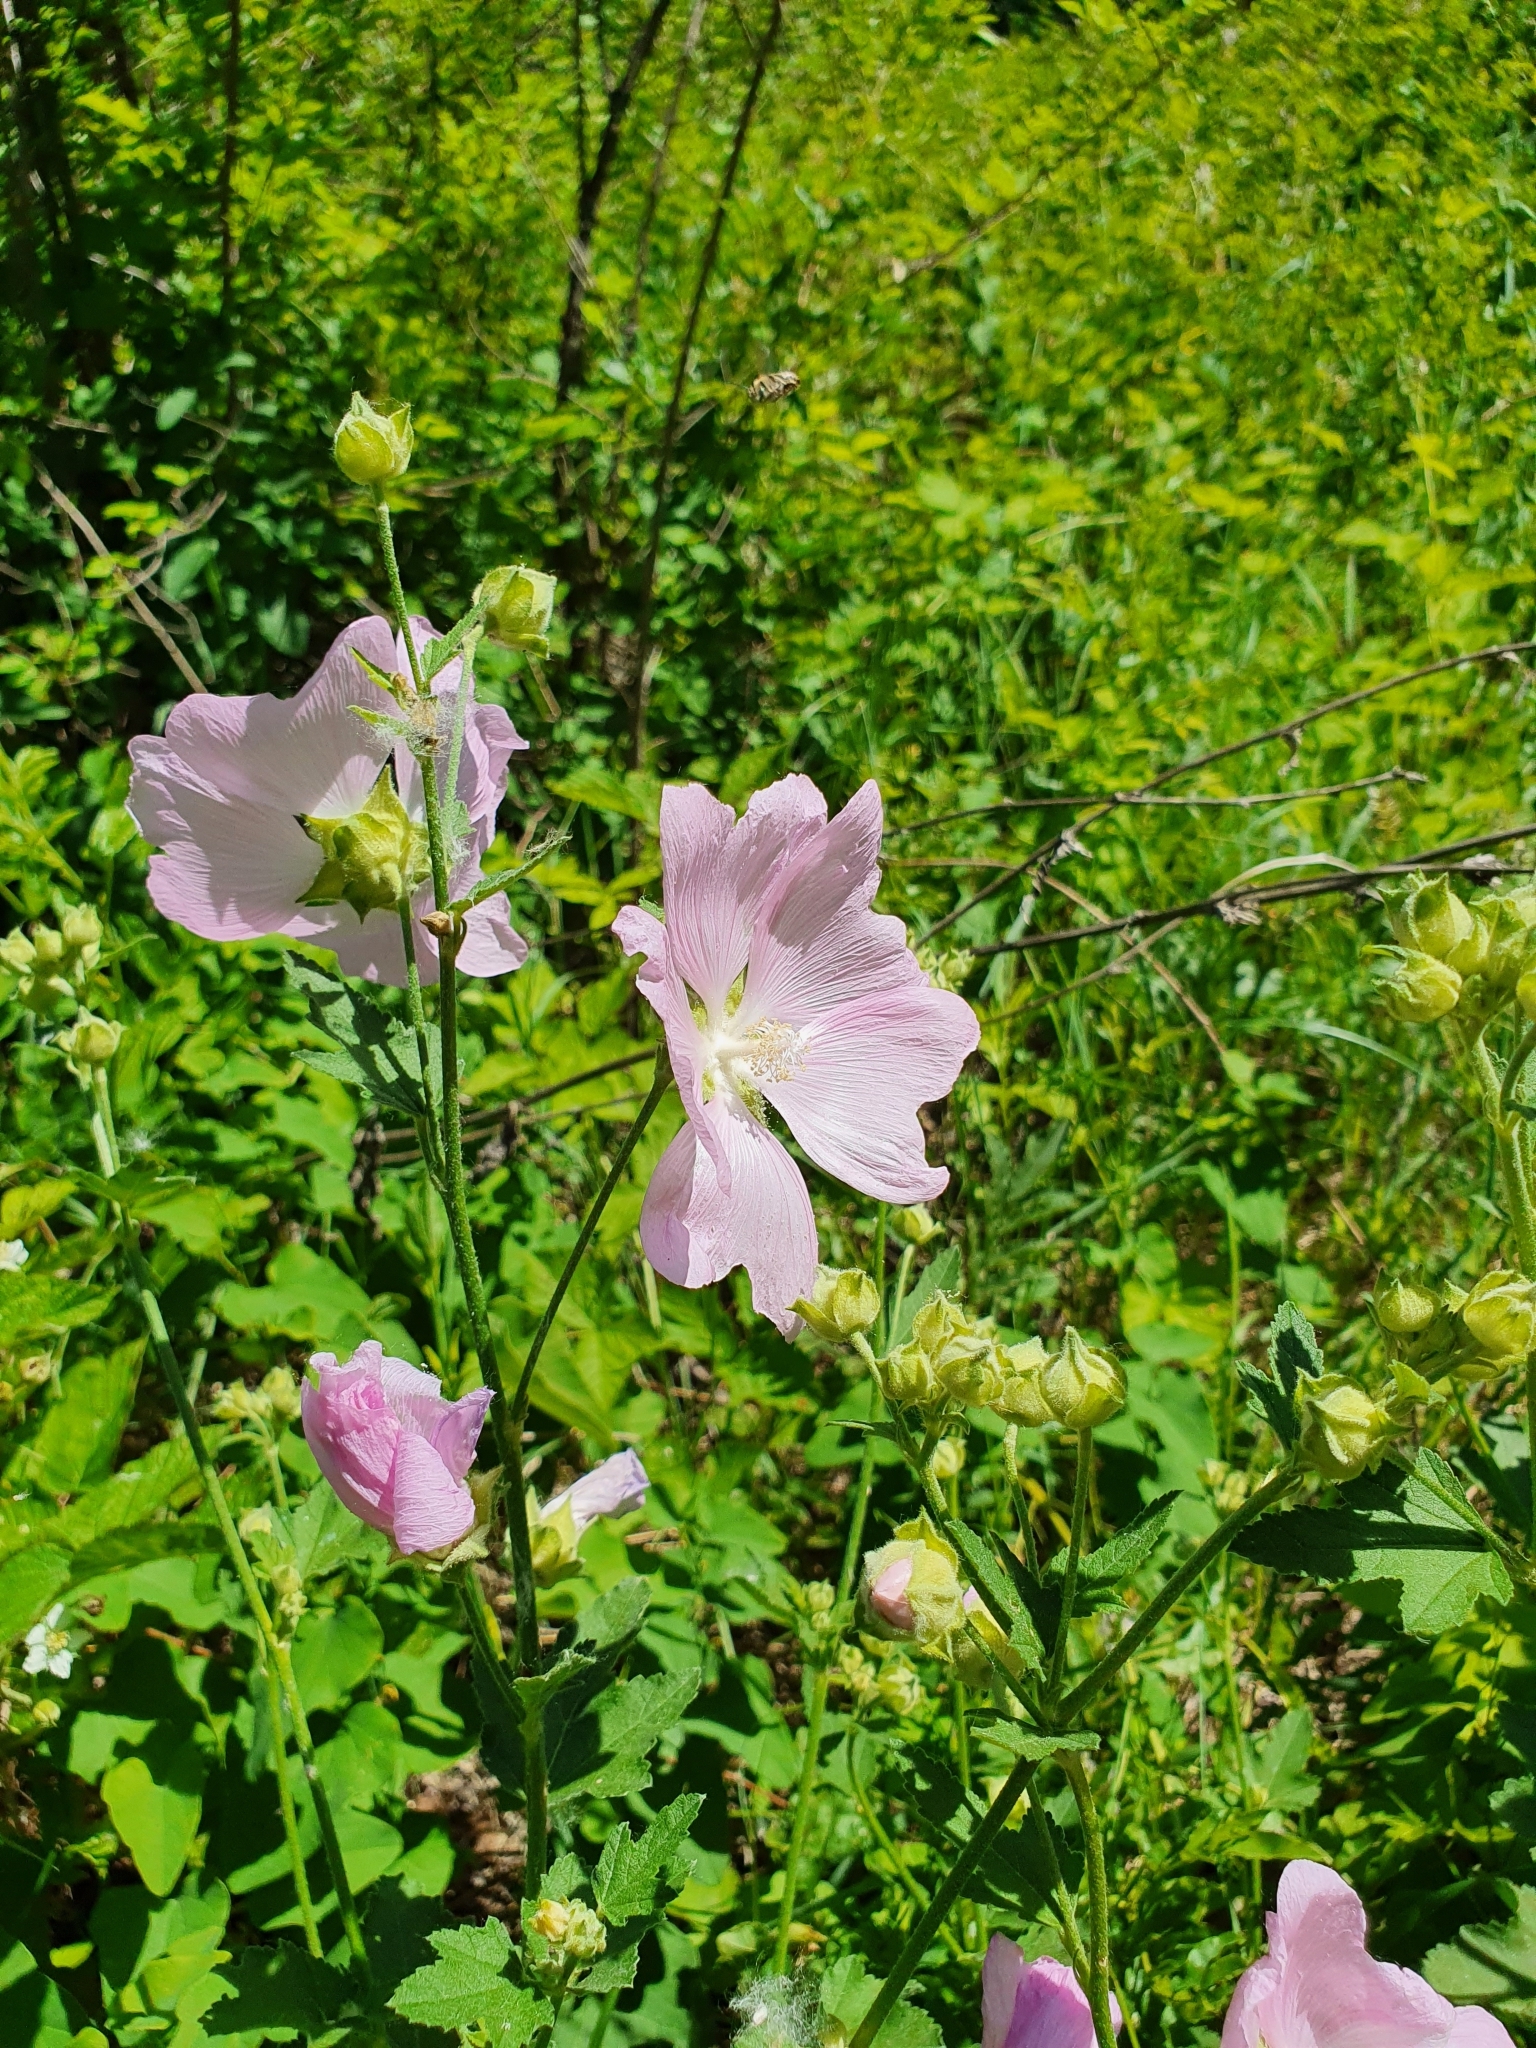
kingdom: Plantae
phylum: Tracheophyta
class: Magnoliopsida
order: Malvales
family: Malvaceae
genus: Malva
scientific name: Malva thuringiaca
